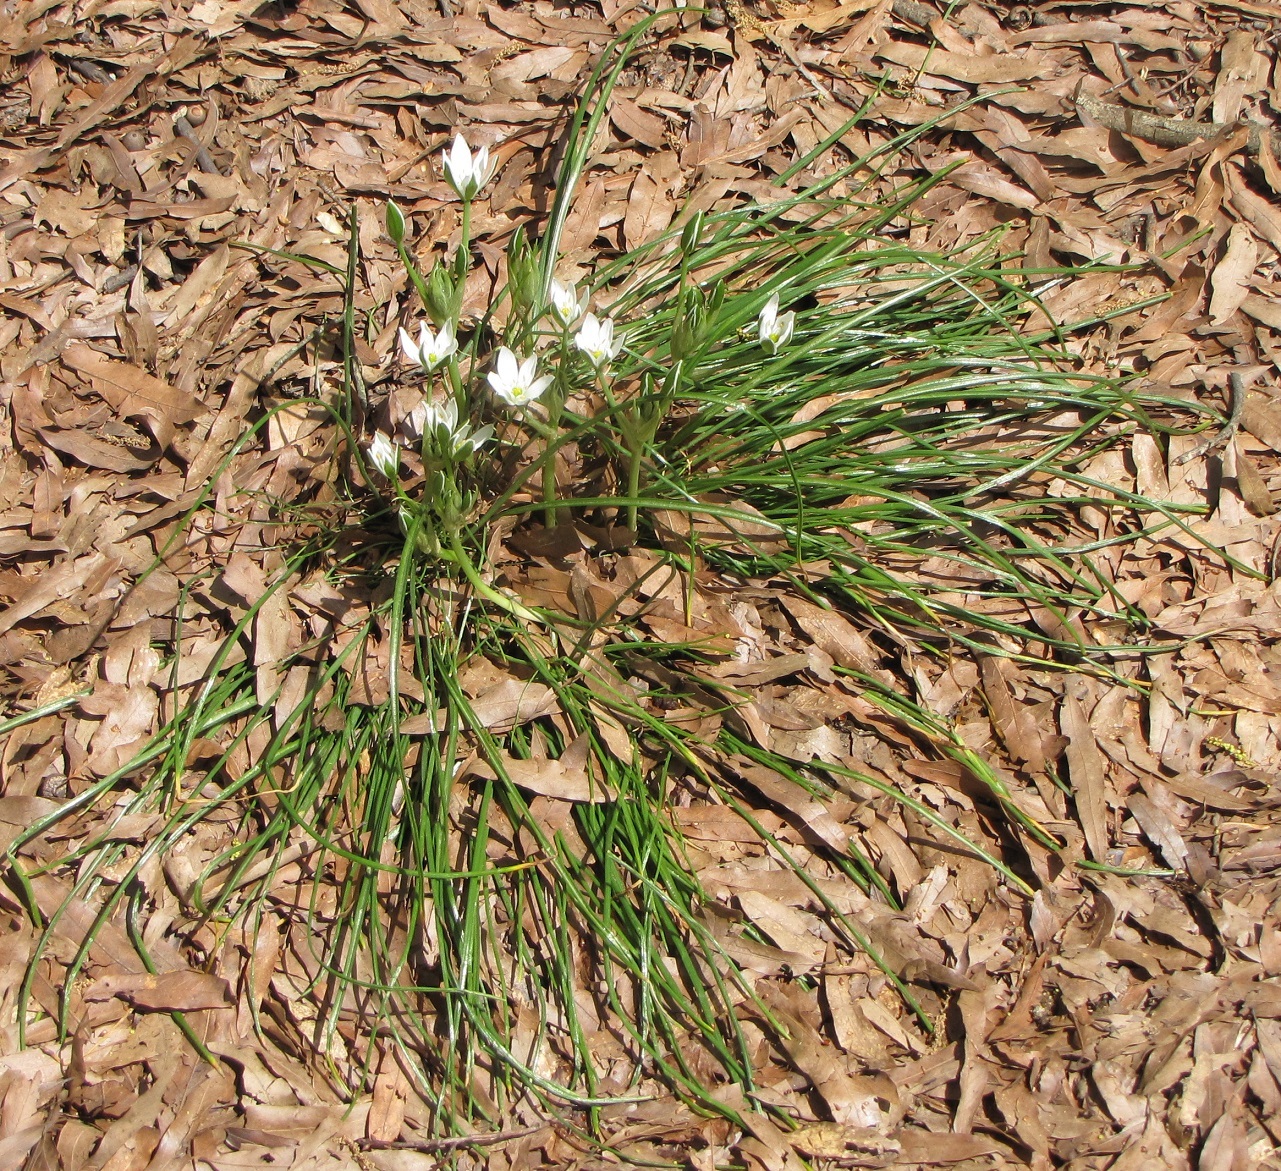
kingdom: Plantae
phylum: Tracheophyta
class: Liliopsida
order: Asparagales
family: Asparagaceae
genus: Ornithogalum
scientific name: Ornithogalum umbellatum
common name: Garden star-of-bethlehem
